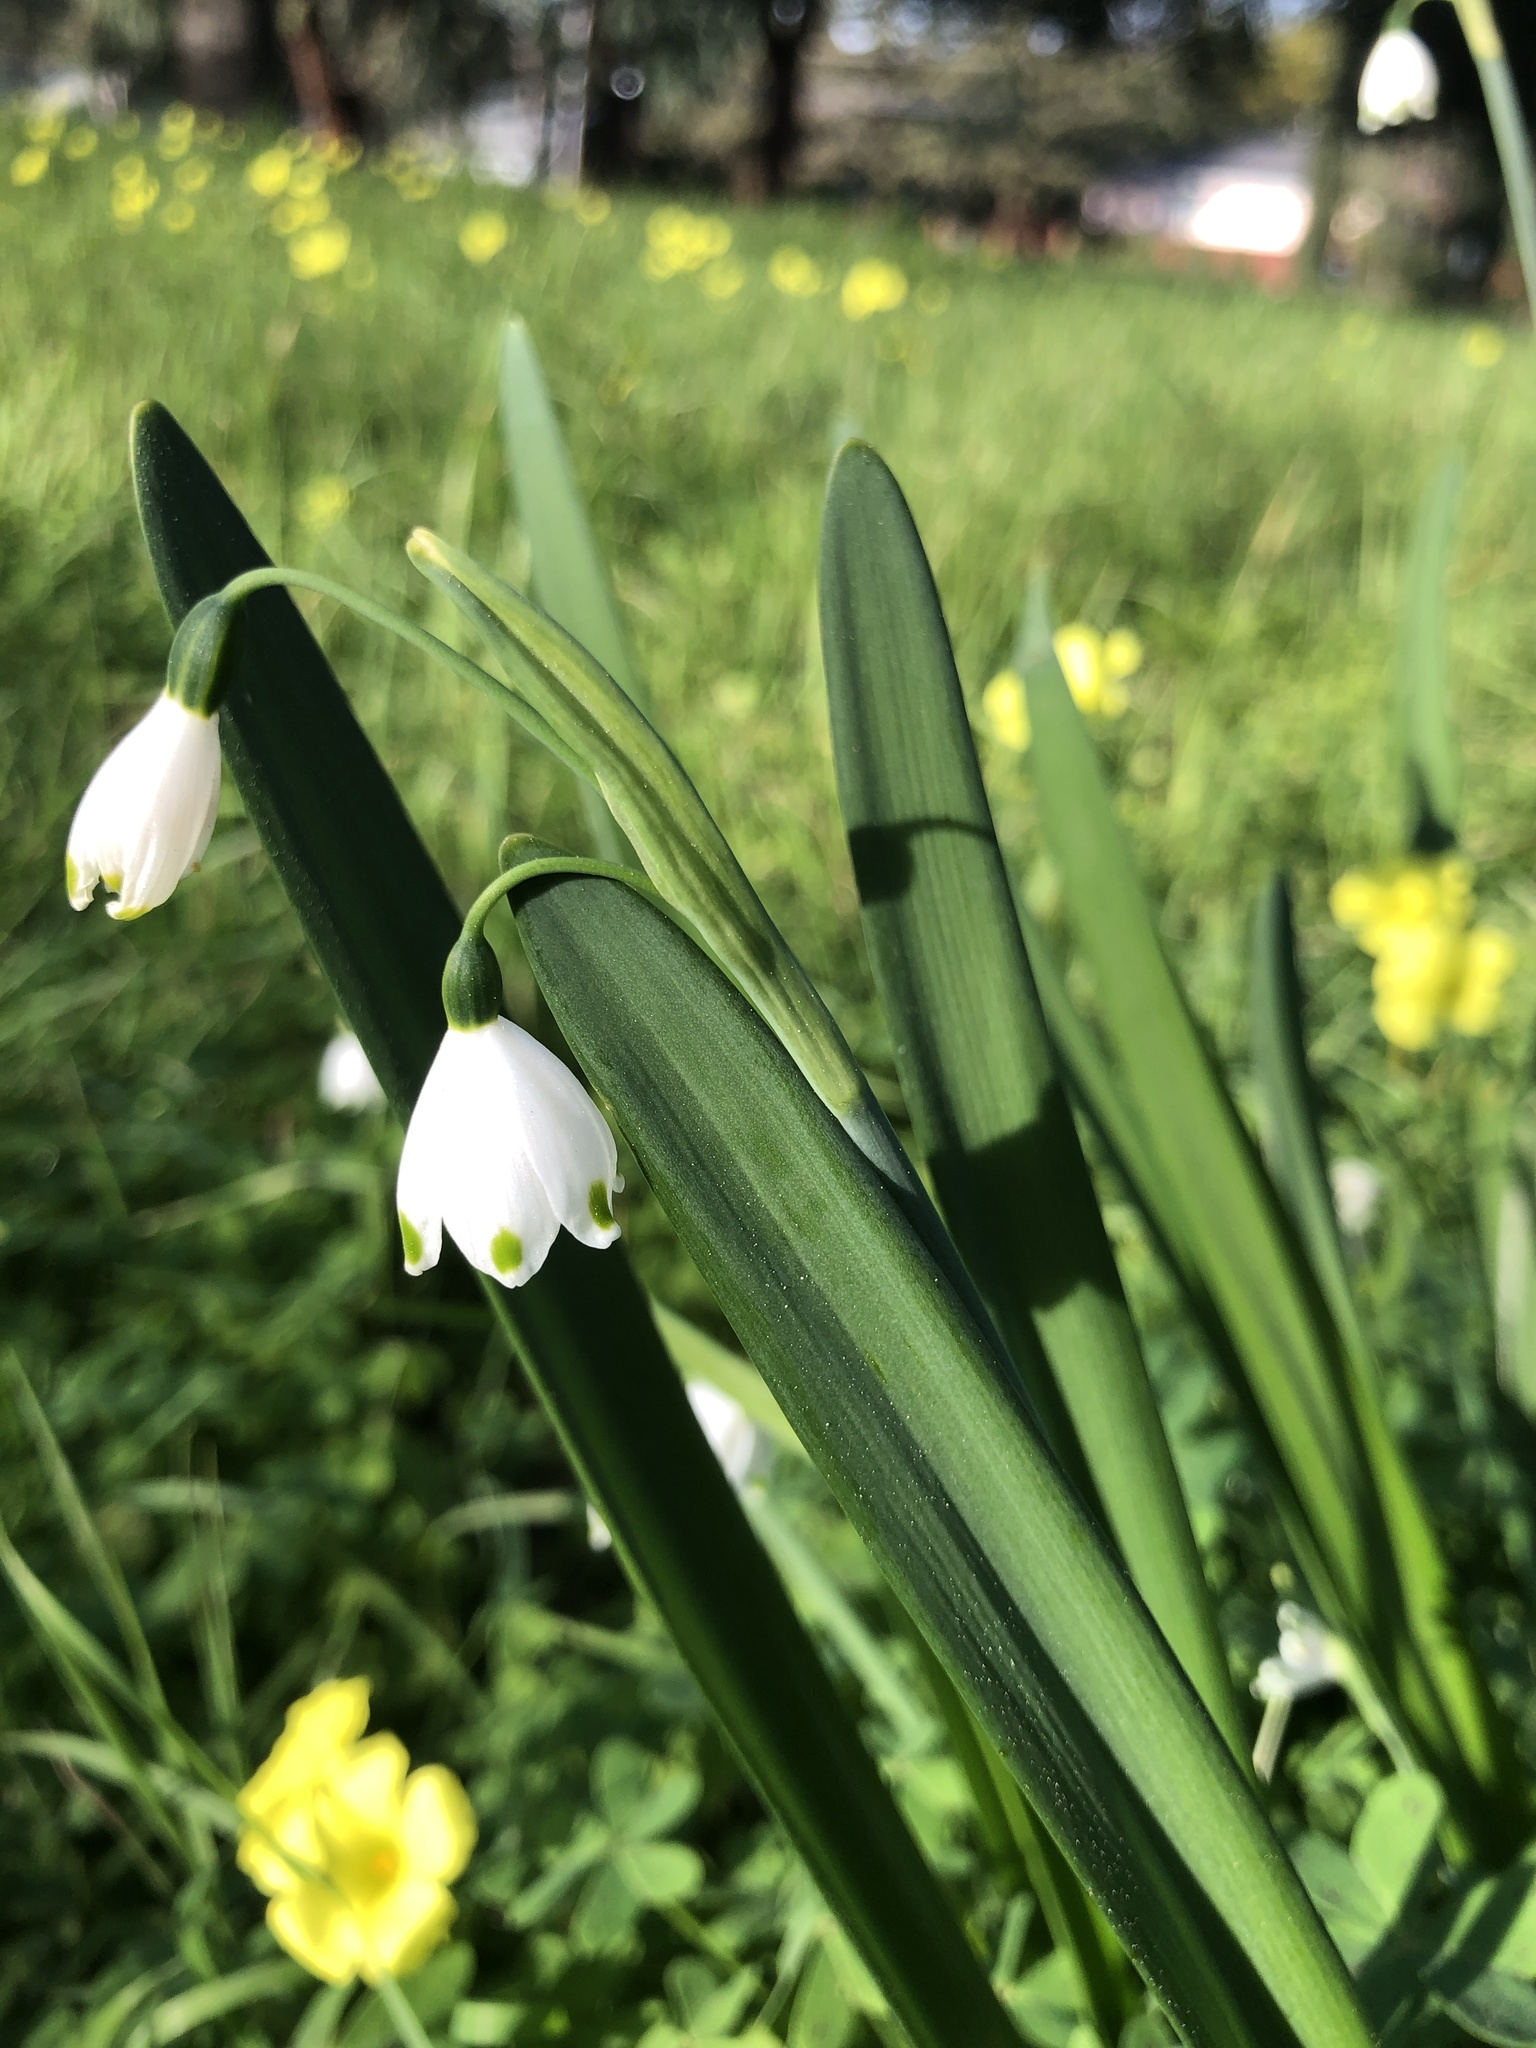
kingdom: Plantae
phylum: Tracheophyta
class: Liliopsida
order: Asparagales
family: Amaryllidaceae
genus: Leucojum
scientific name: Leucojum aestivum
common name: Summer snowflake
